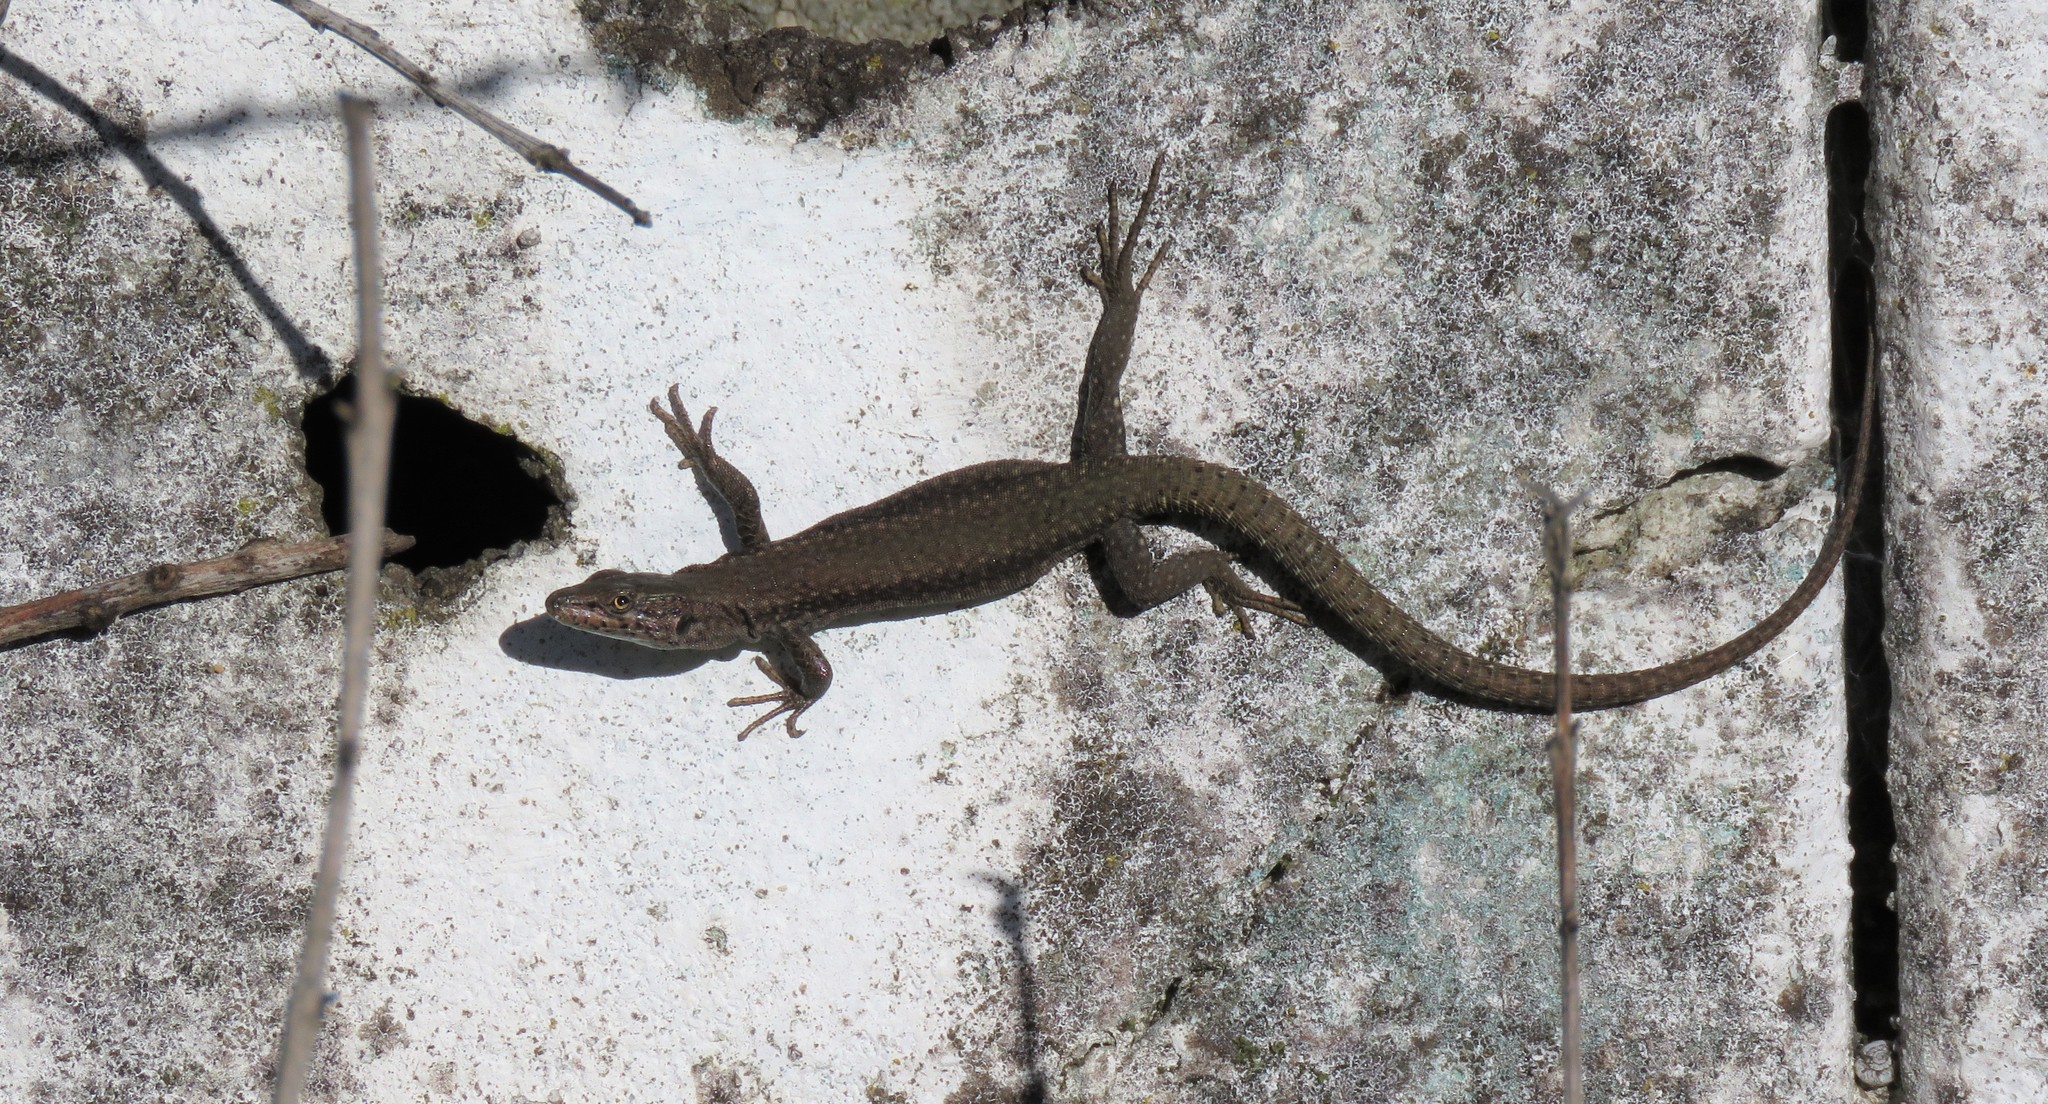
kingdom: Animalia
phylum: Chordata
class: Squamata
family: Lacertidae
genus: Podarcis
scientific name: Podarcis virescens
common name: Geniez’s wall lizard
